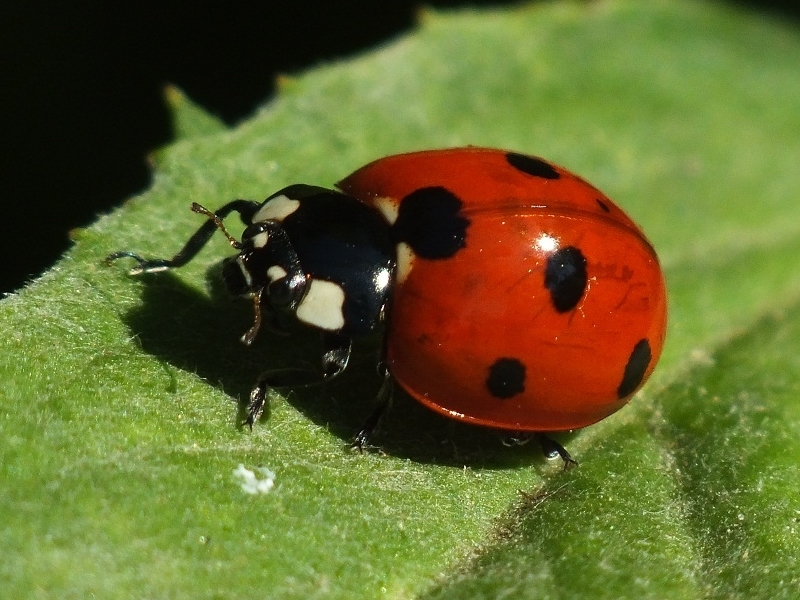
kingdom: Animalia
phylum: Arthropoda
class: Insecta
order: Coleoptera
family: Coccinellidae
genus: Coccinella
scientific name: Coccinella septempunctata
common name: Sevenspotted lady beetle
